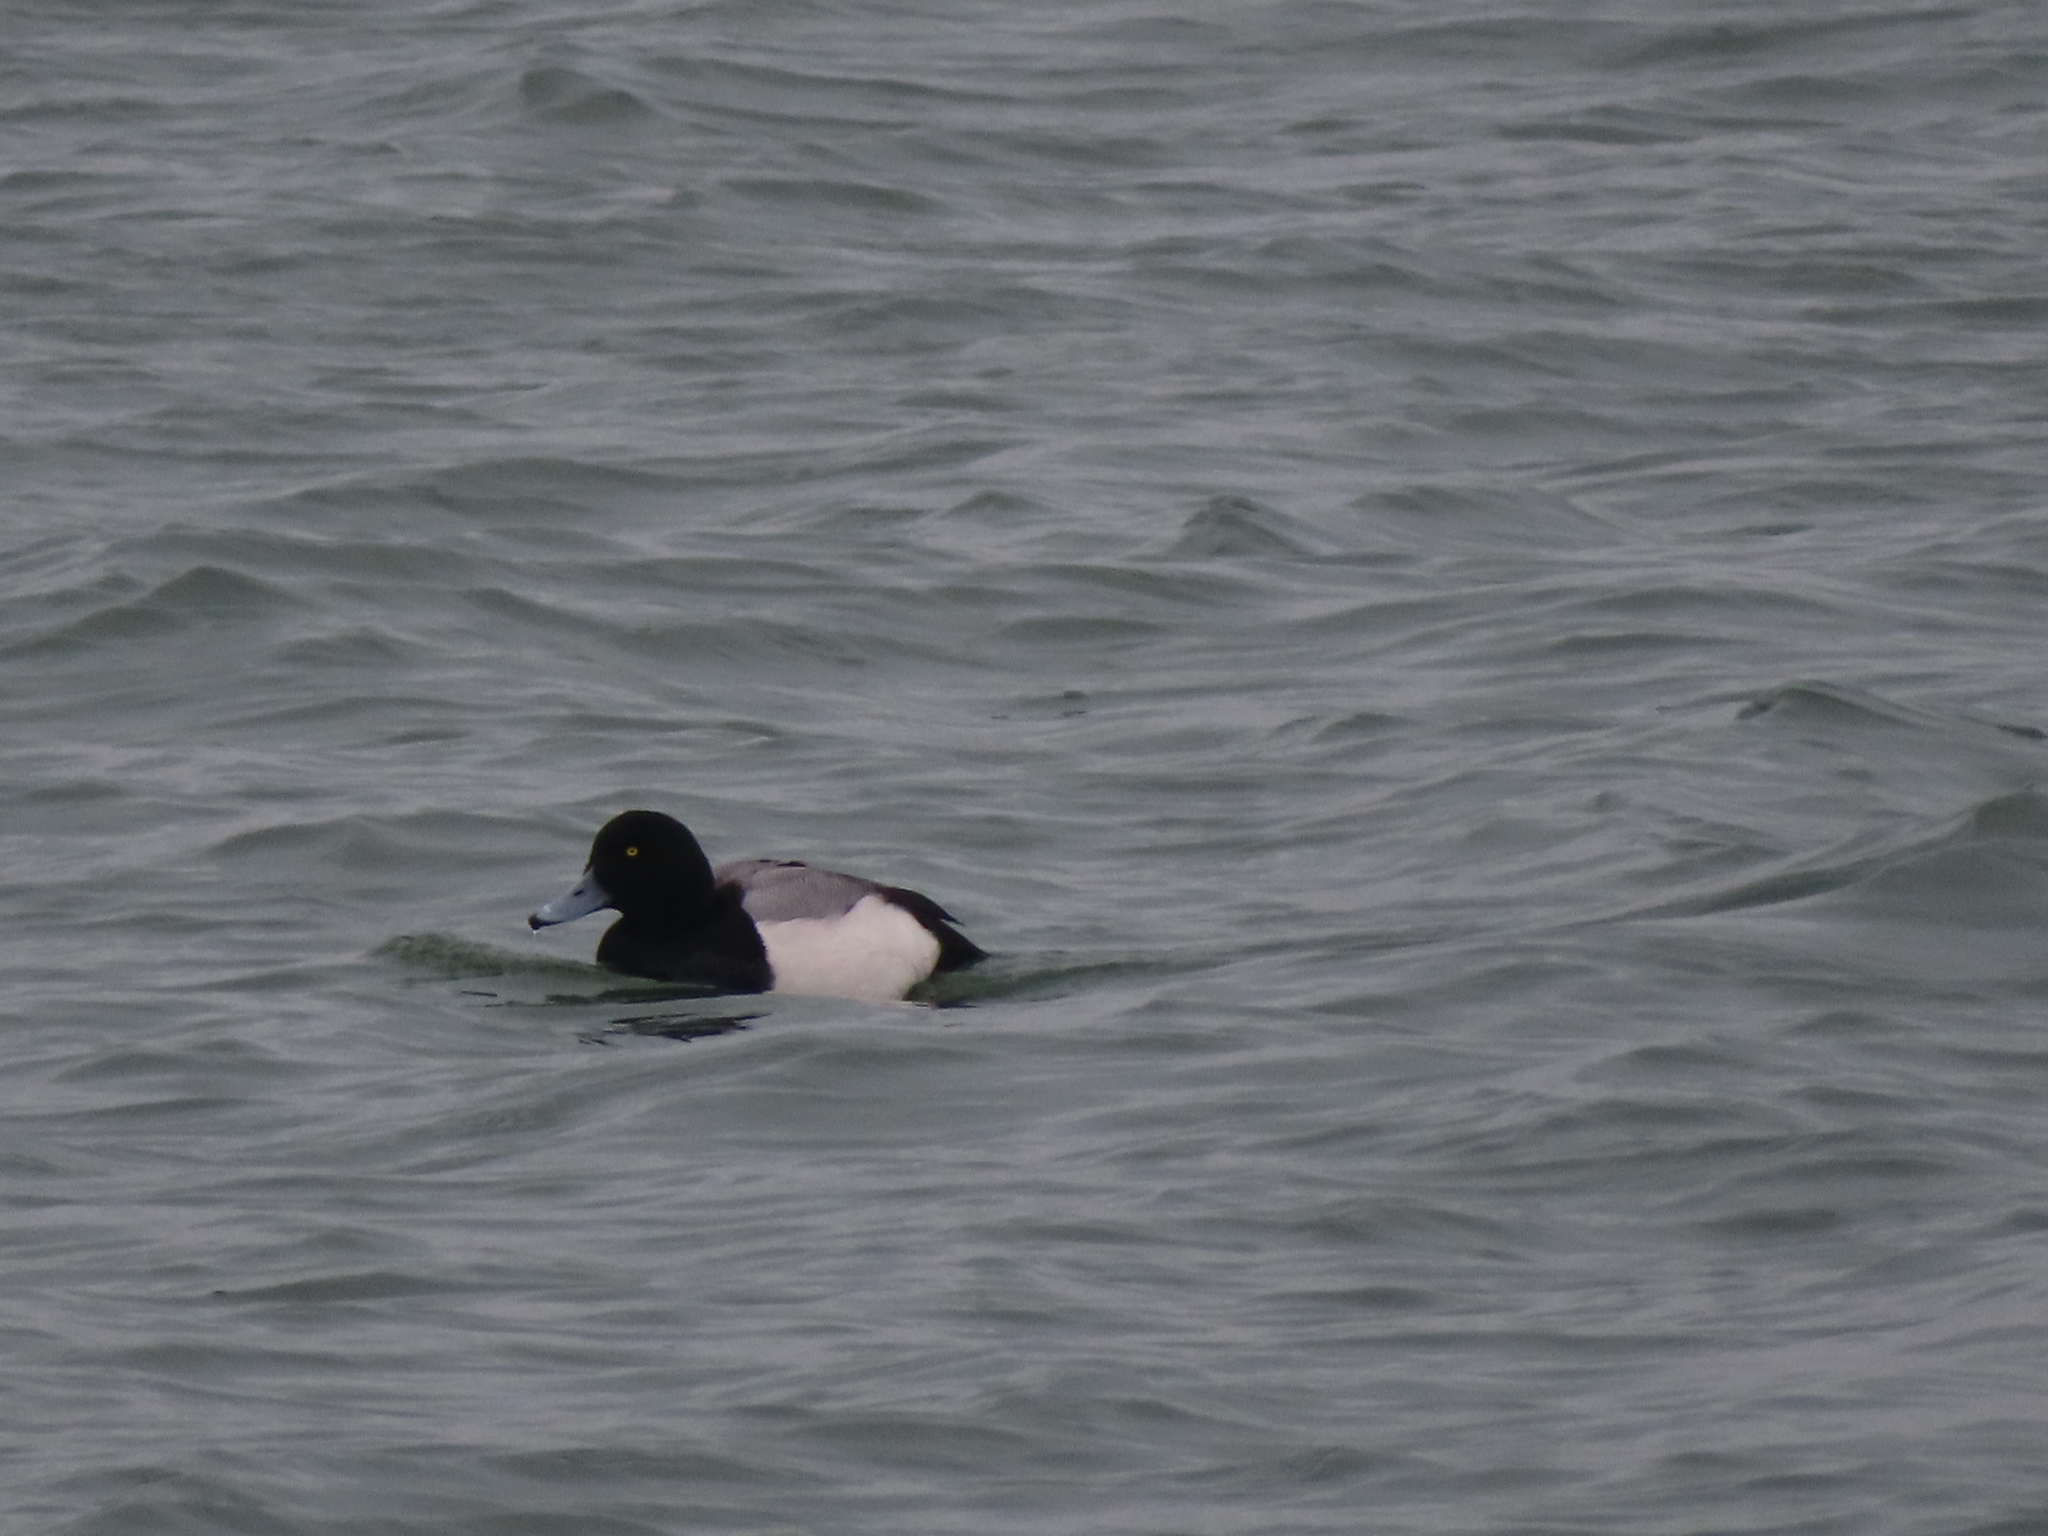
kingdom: Animalia
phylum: Chordata
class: Aves
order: Anseriformes
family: Anatidae
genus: Aythya
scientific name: Aythya marila
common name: Greater scaup
